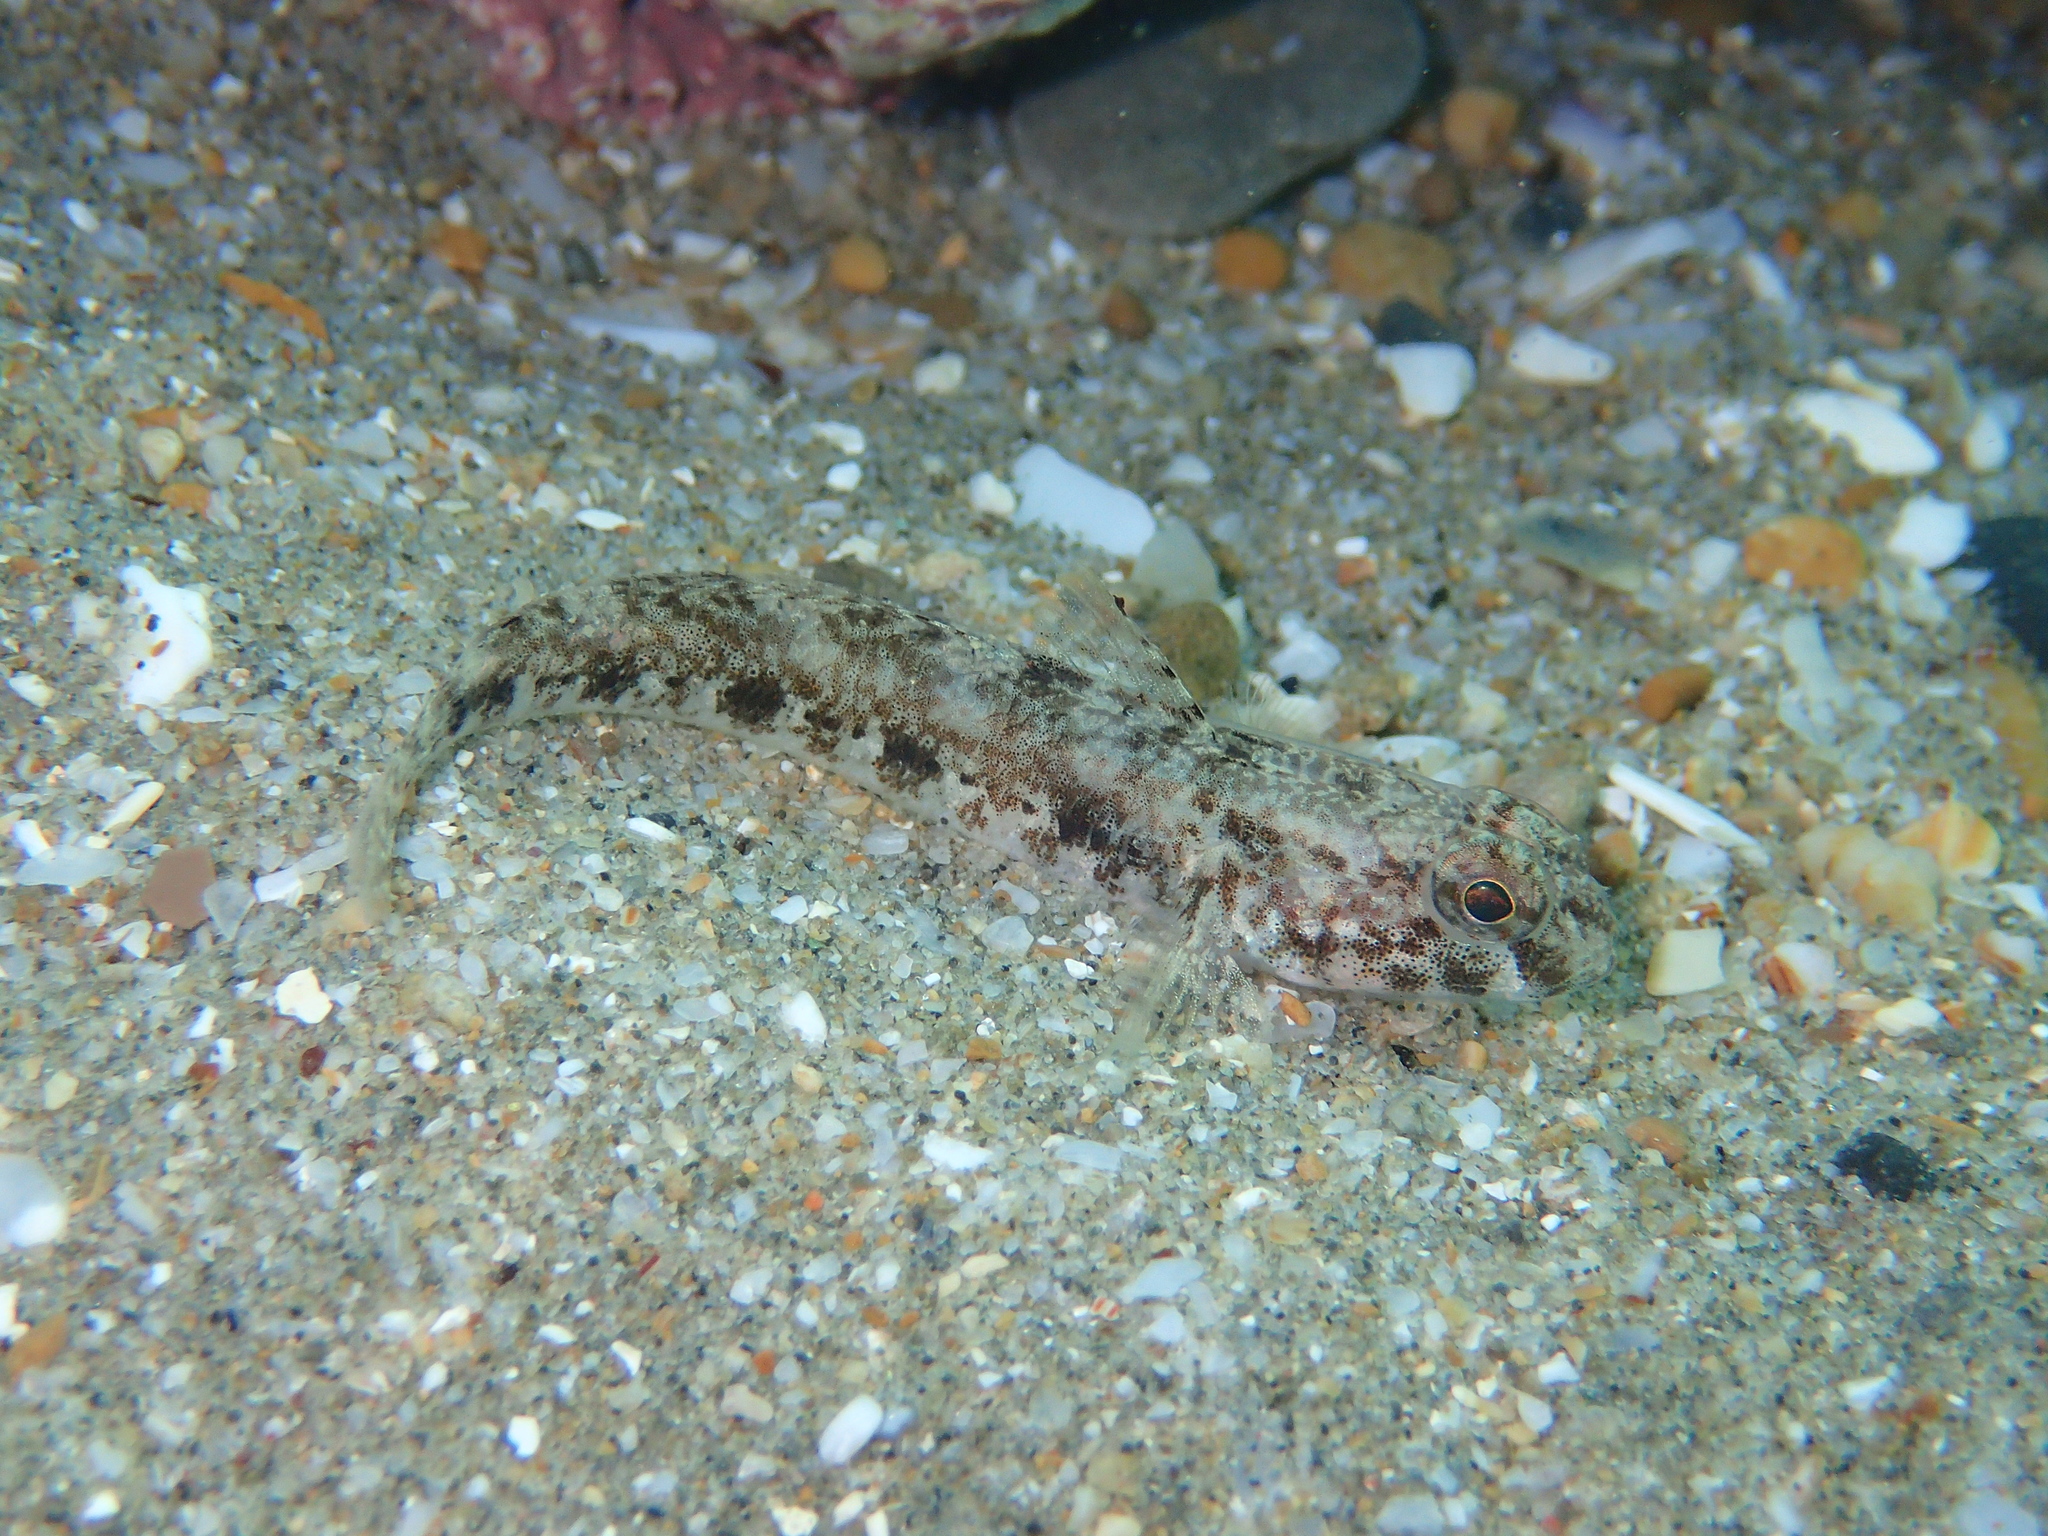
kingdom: Animalia
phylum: Chordata
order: Perciformes
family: Gobiidae
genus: Gobius
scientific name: Gobius niger
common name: Black goby
